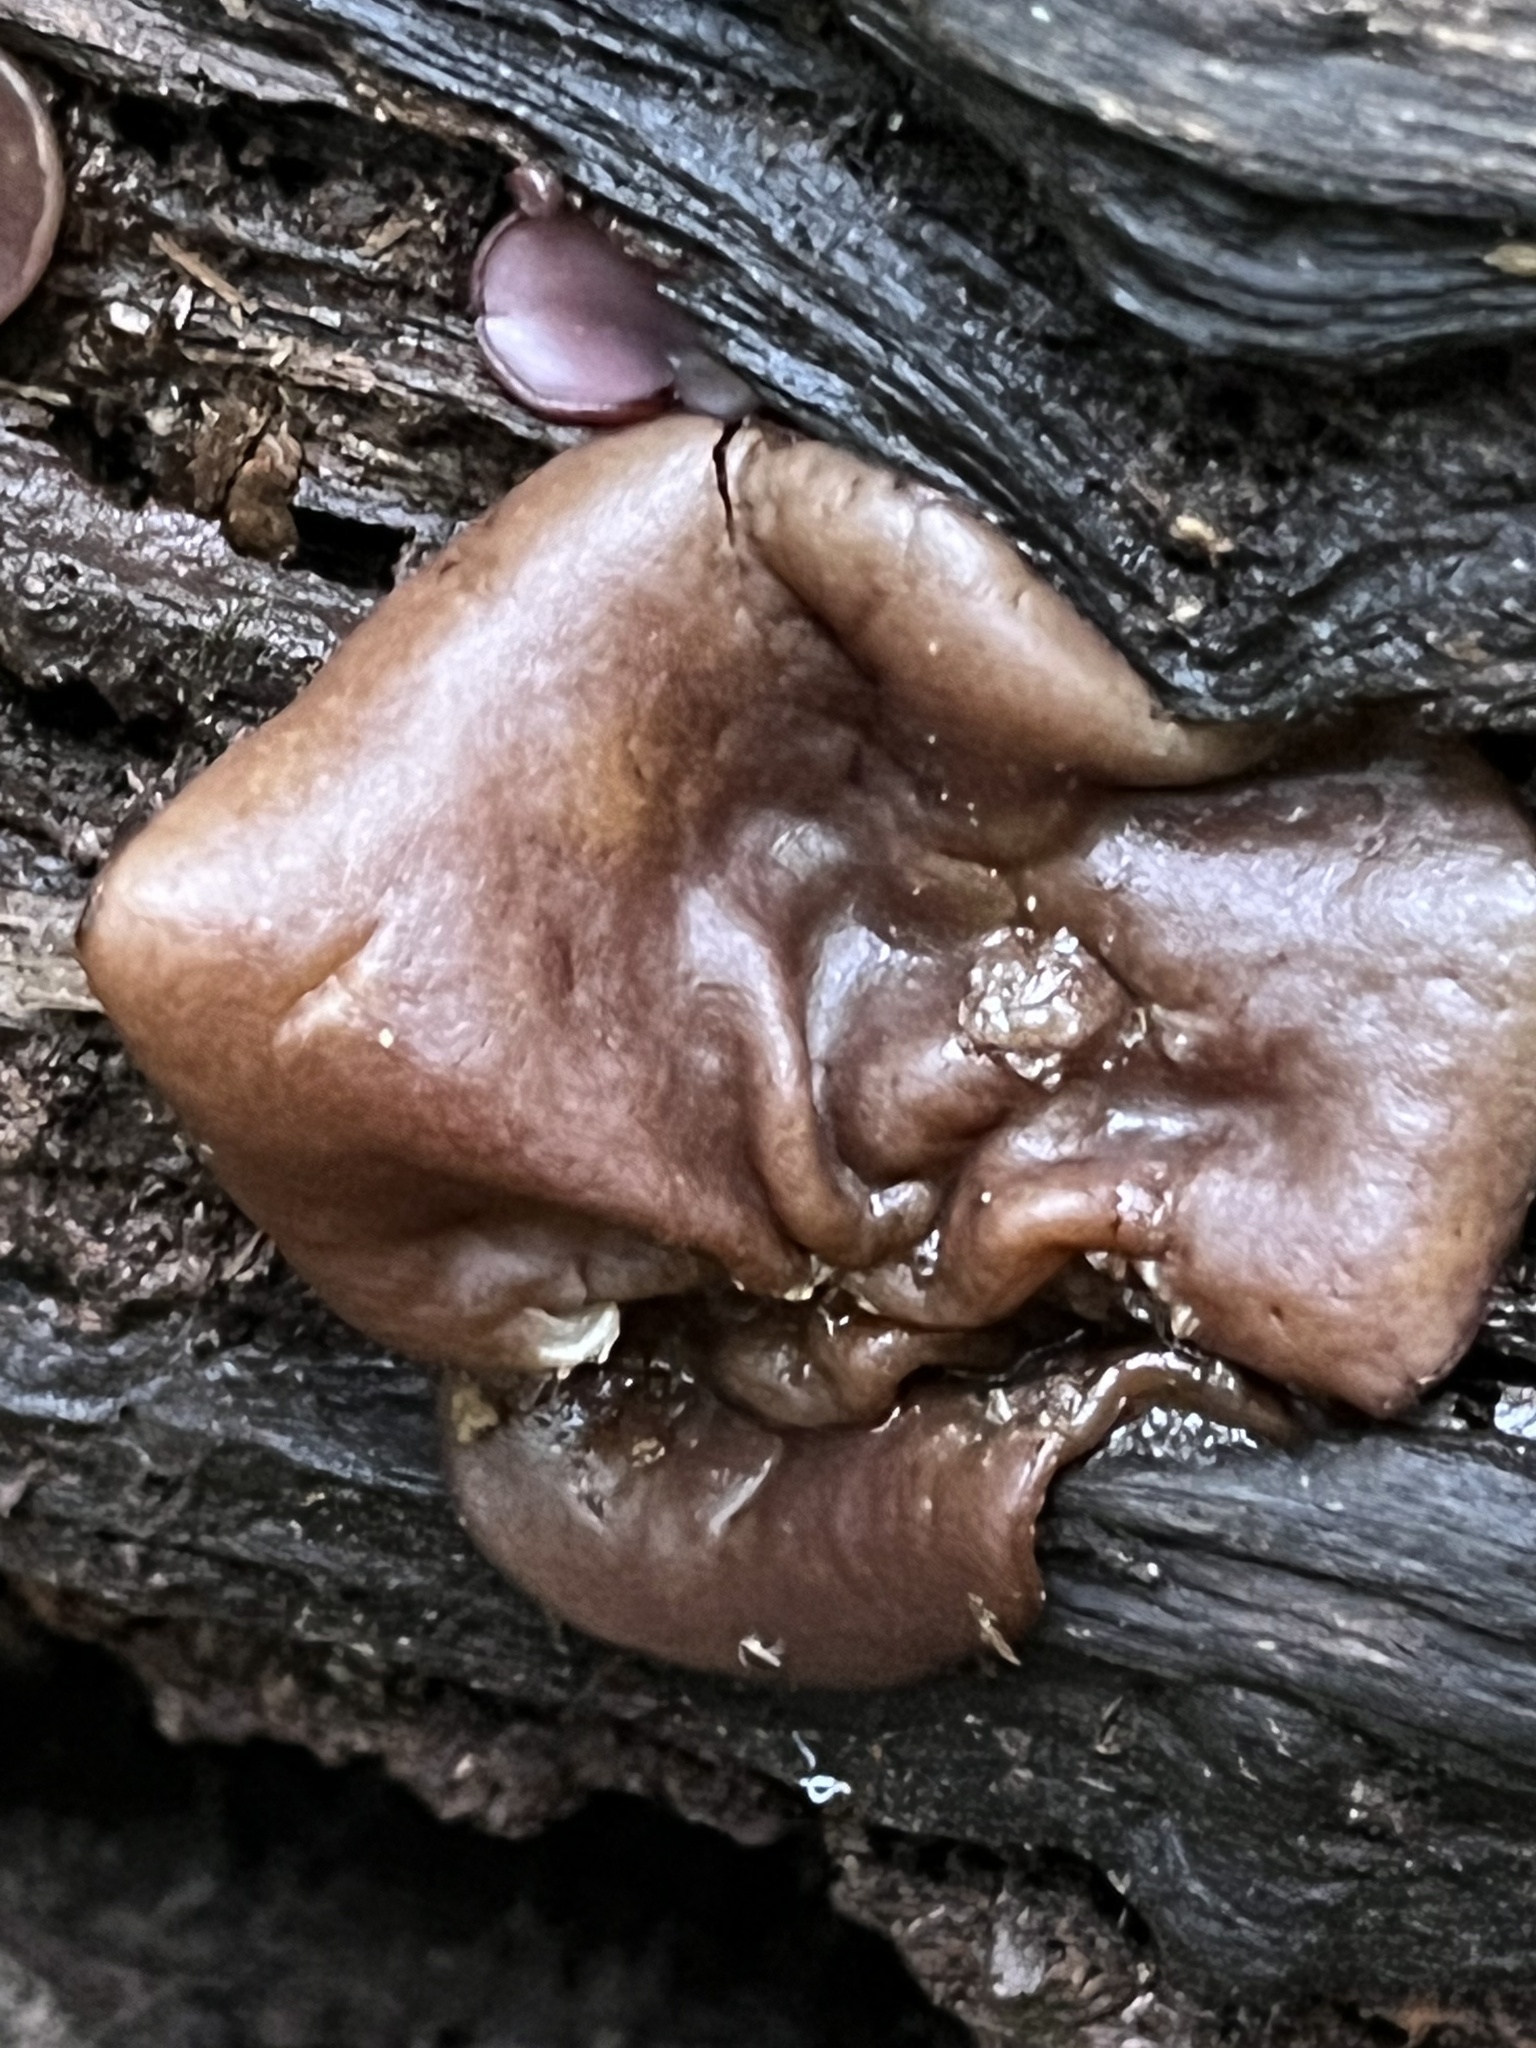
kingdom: Fungi
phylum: Ascomycota
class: Pezizomycetes
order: Pezizales
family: Pezizaceae
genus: Pachyella
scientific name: Pachyella clypeata
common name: Copper penny fungus
